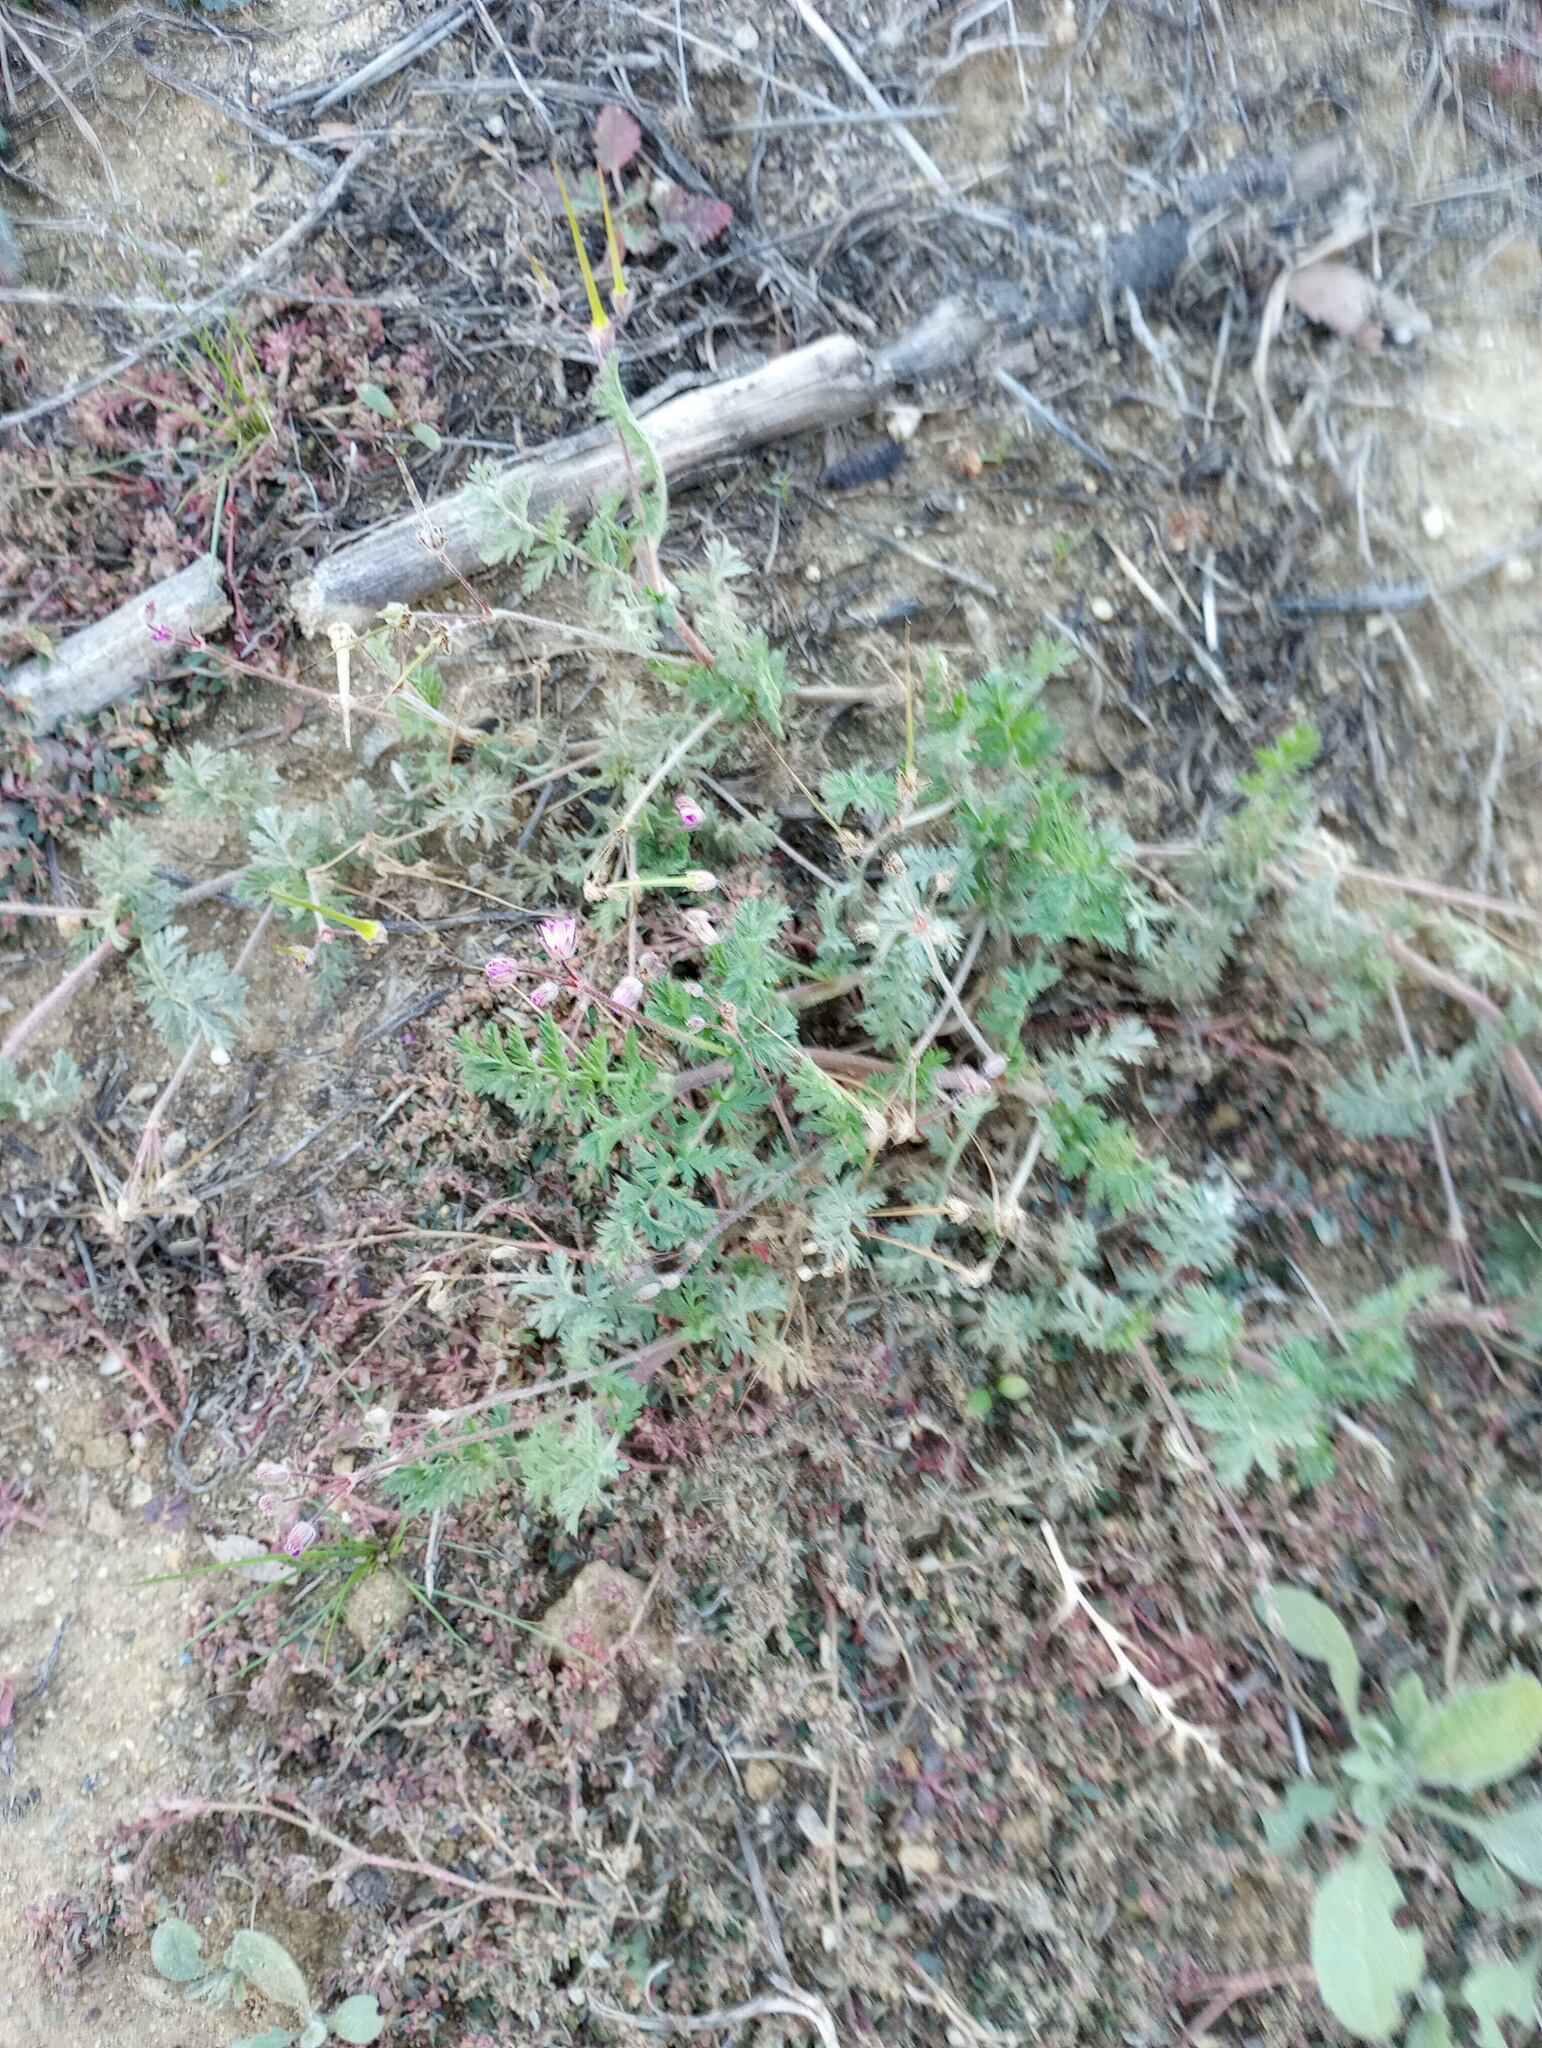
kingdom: Plantae
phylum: Tracheophyta
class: Magnoliopsida
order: Geraniales
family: Geraniaceae
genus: Erodium
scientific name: Erodium cicutarium
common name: Common stork's-bill
